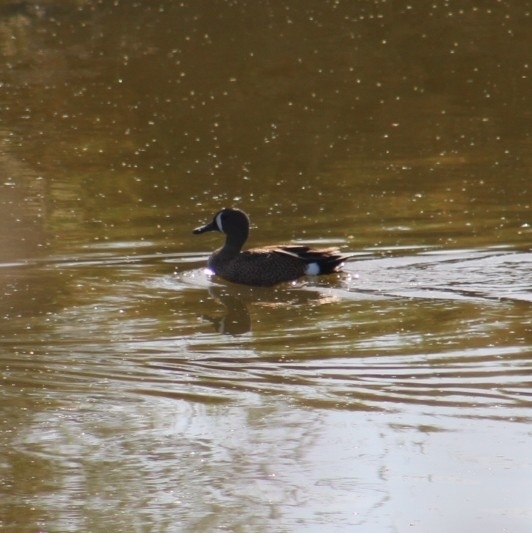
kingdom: Animalia
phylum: Chordata
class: Aves
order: Anseriformes
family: Anatidae
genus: Spatula
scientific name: Spatula discors
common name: Blue-winged teal
